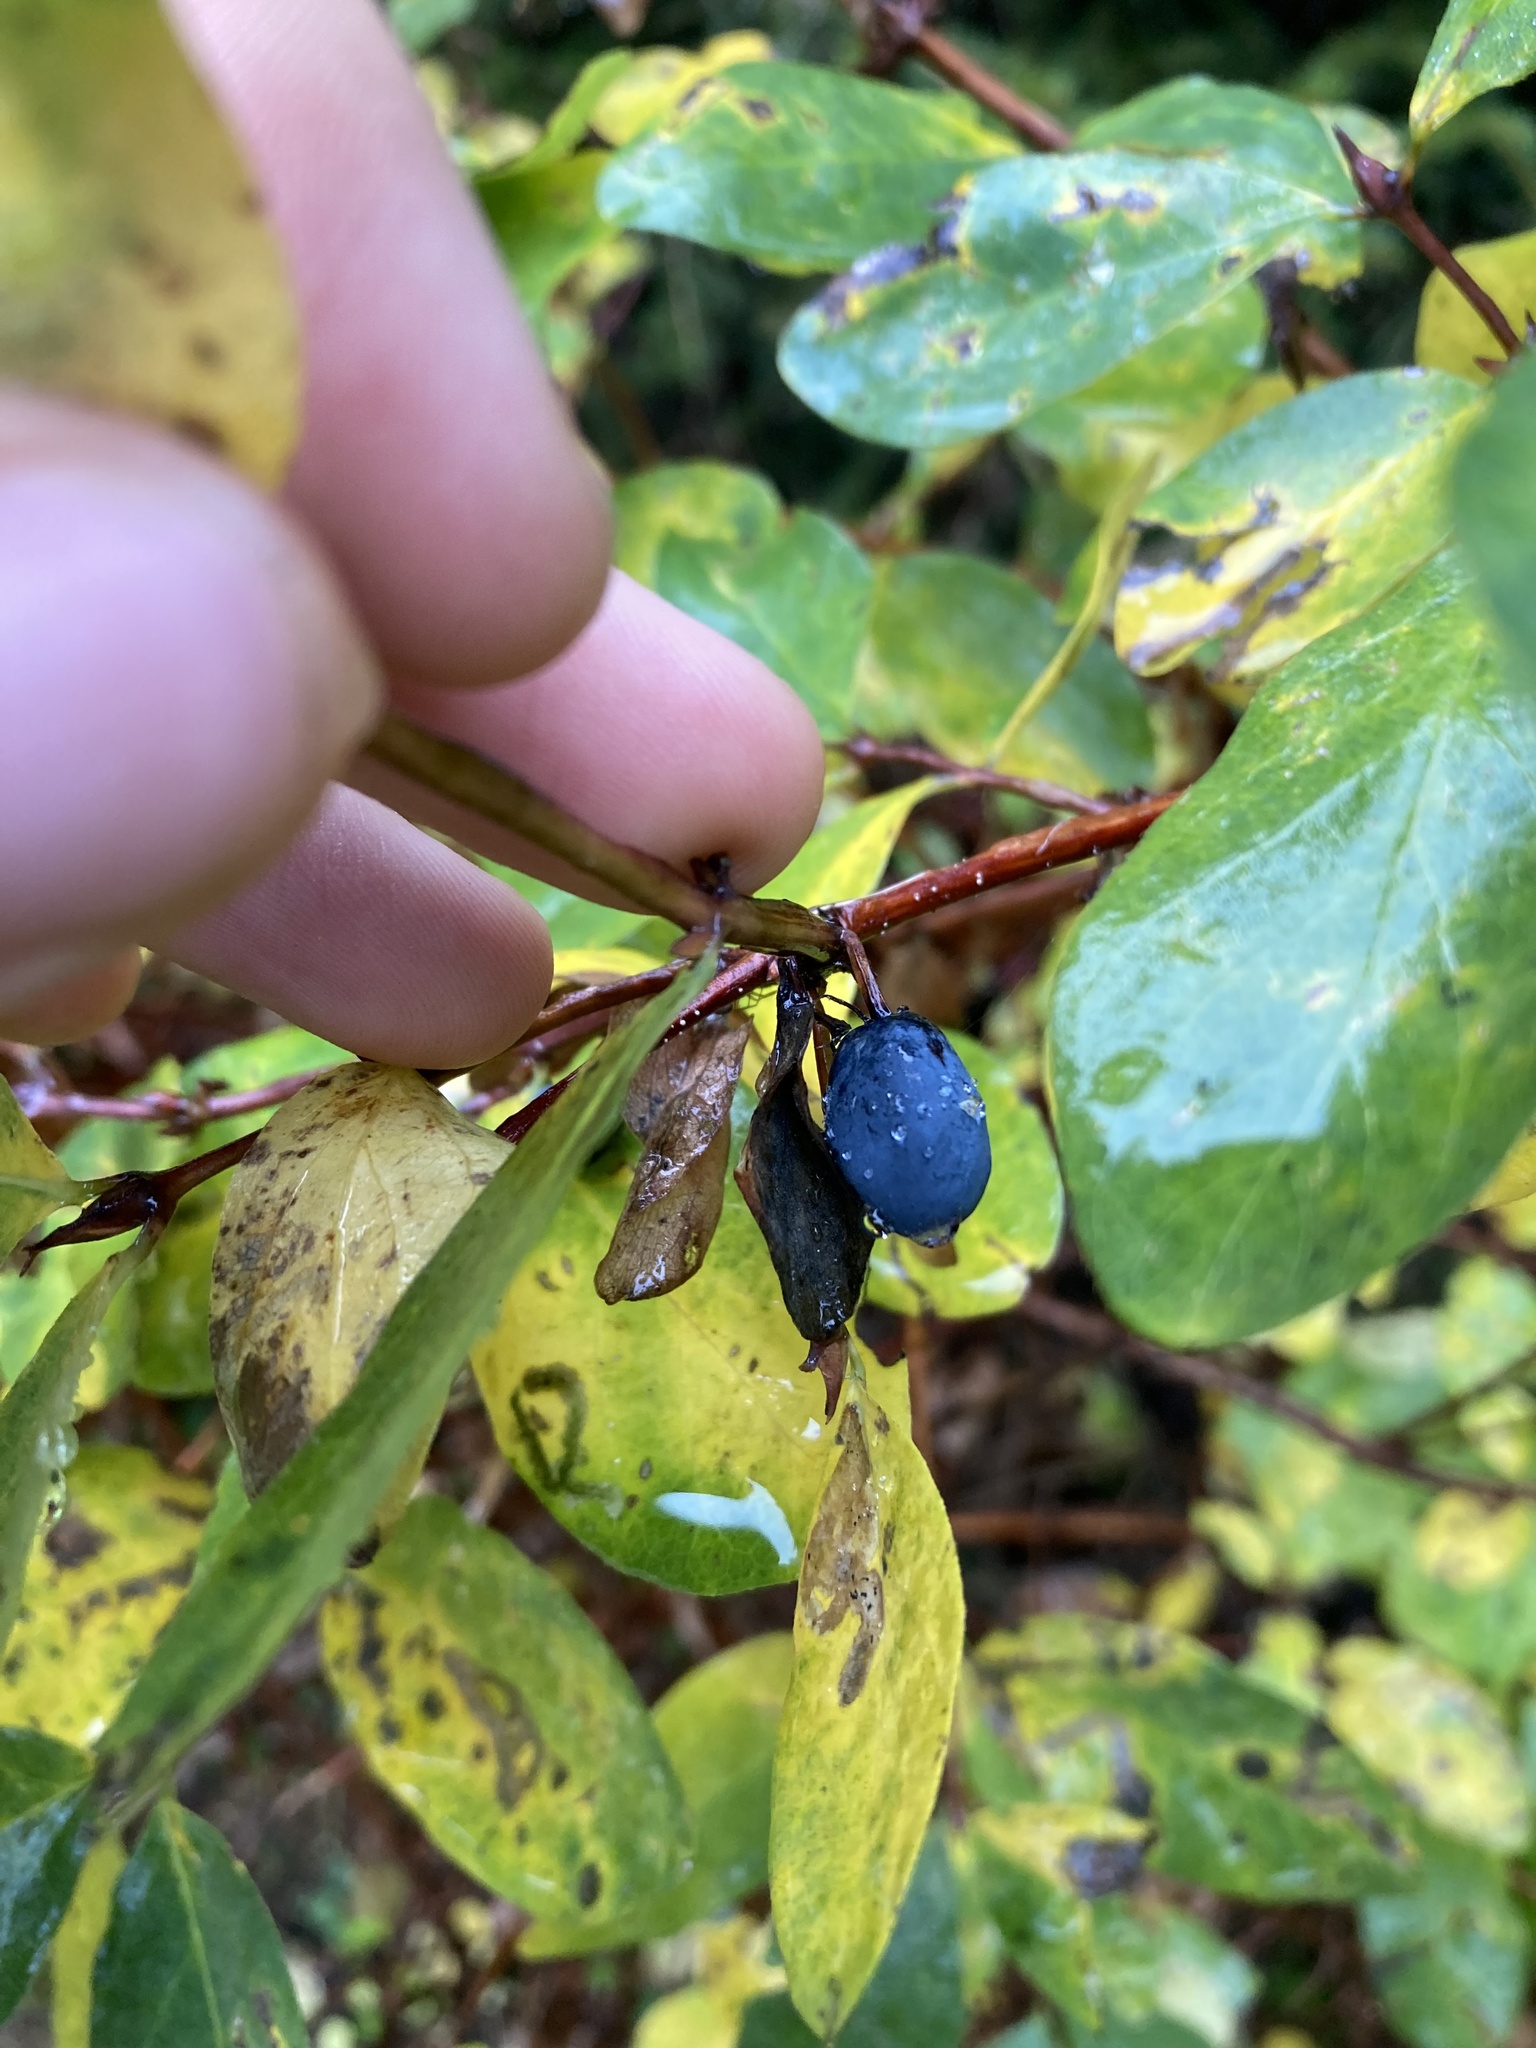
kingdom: Plantae
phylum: Tracheophyta
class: Magnoliopsida
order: Dipsacales
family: Caprifoliaceae
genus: Lonicera
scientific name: Lonicera caerulea
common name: Blue honeysuckle
